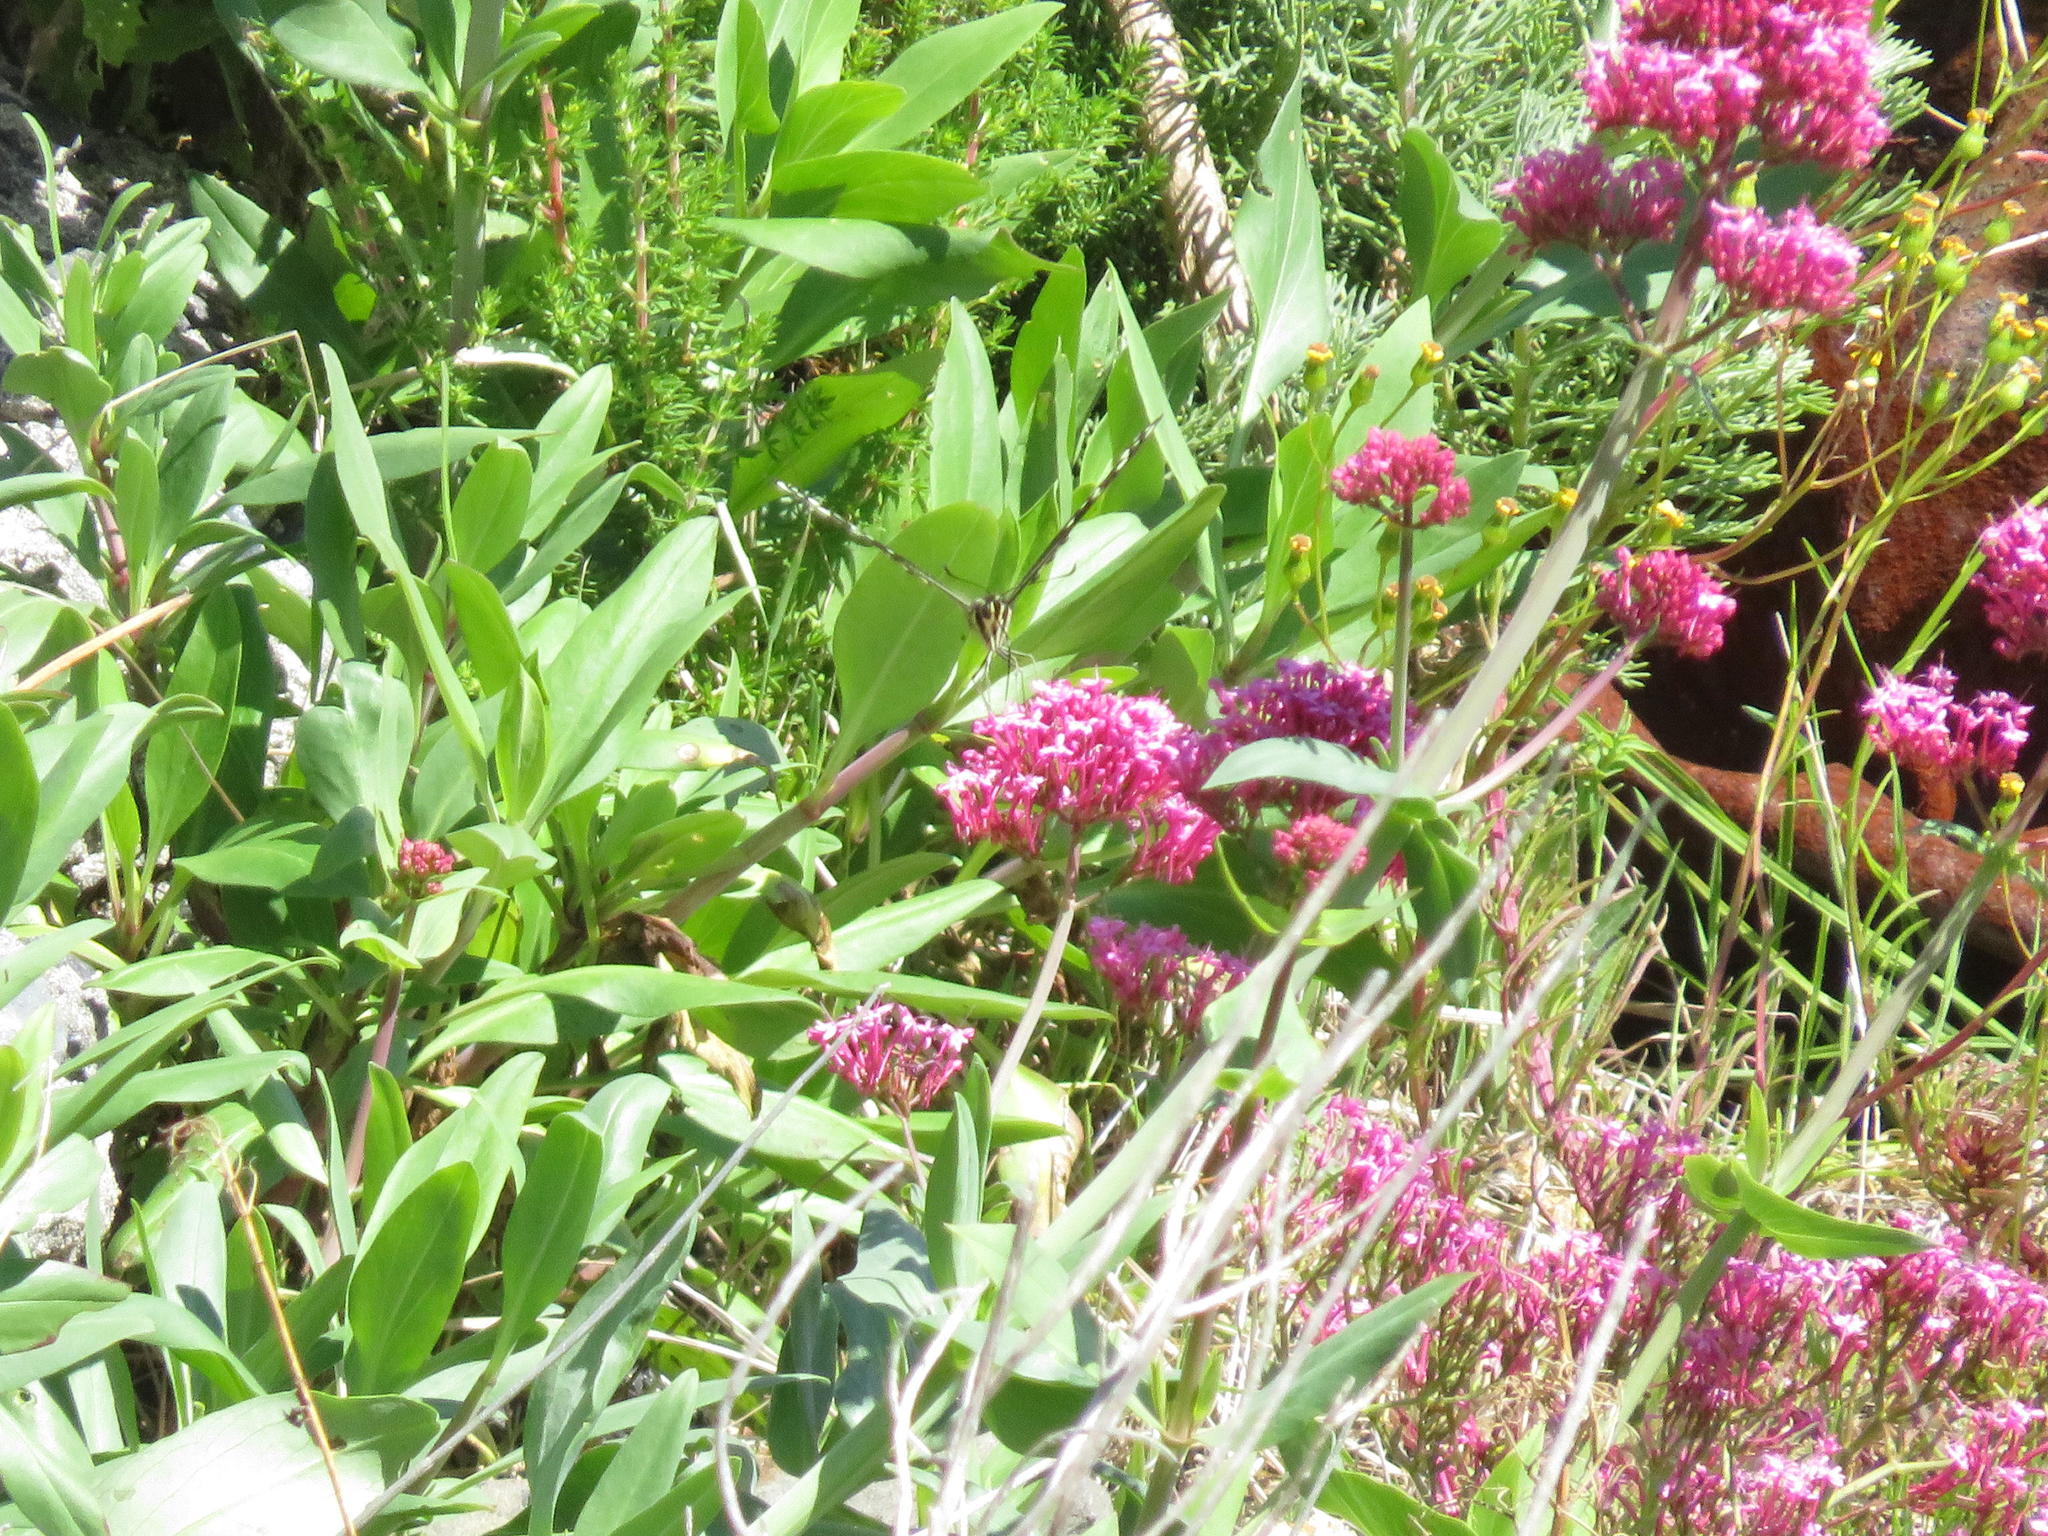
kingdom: Animalia
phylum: Arthropoda
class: Insecta
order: Lepidoptera
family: Papilionidae
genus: Papilio
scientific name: Papilio demodocus
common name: Christmas butterfly
